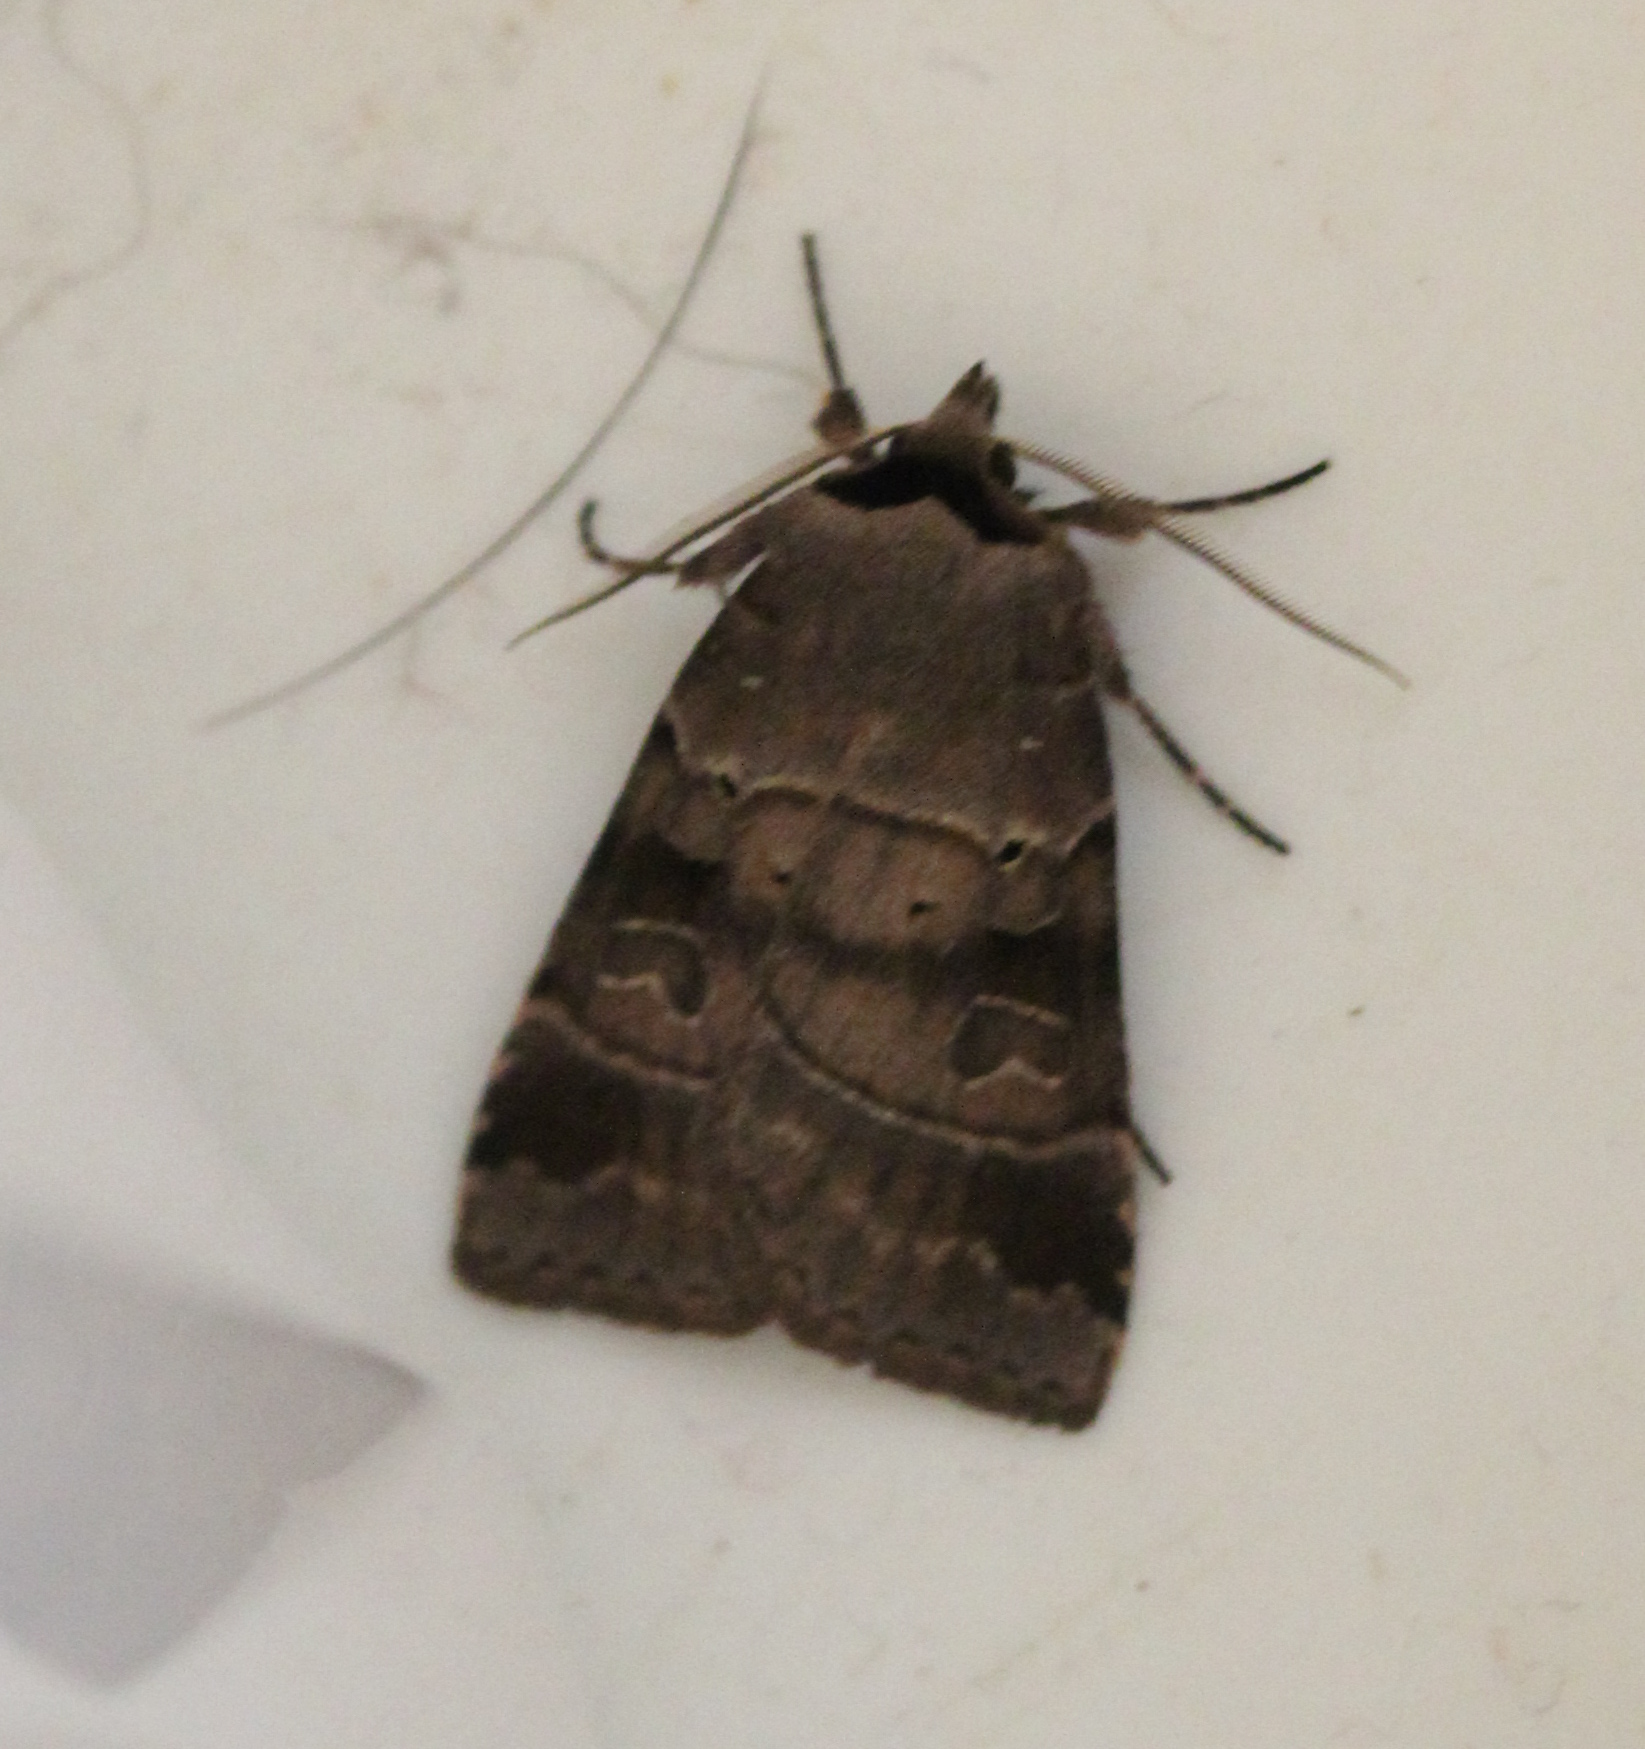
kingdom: Animalia
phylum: Arthropoda
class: Insecta
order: Lepidoptera
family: Noctuidae
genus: Agnorisma
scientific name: Agnorisma badinodis
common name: Pale-banded dart
